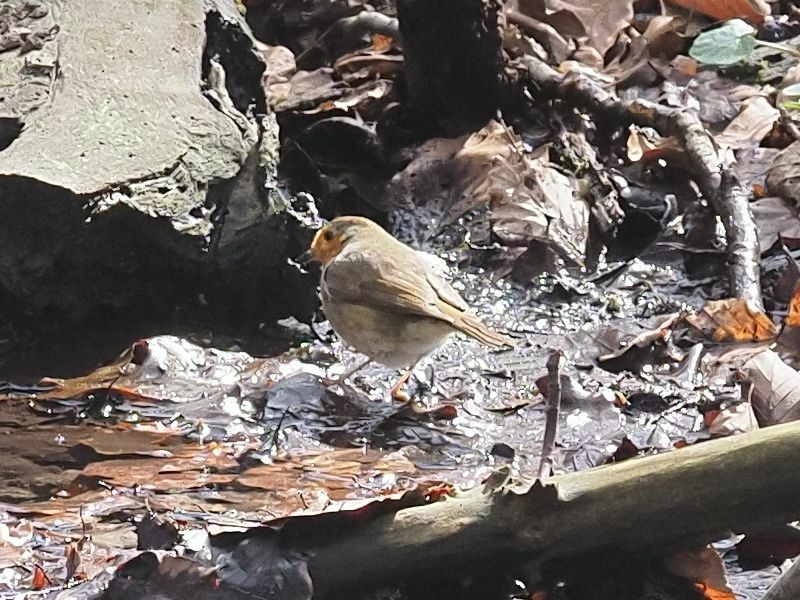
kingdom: Animalia
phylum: Chordata
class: Aves
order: Passeriformes
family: Muscicapidae
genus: Erithacus
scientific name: Erithacus rubecula
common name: European robin
